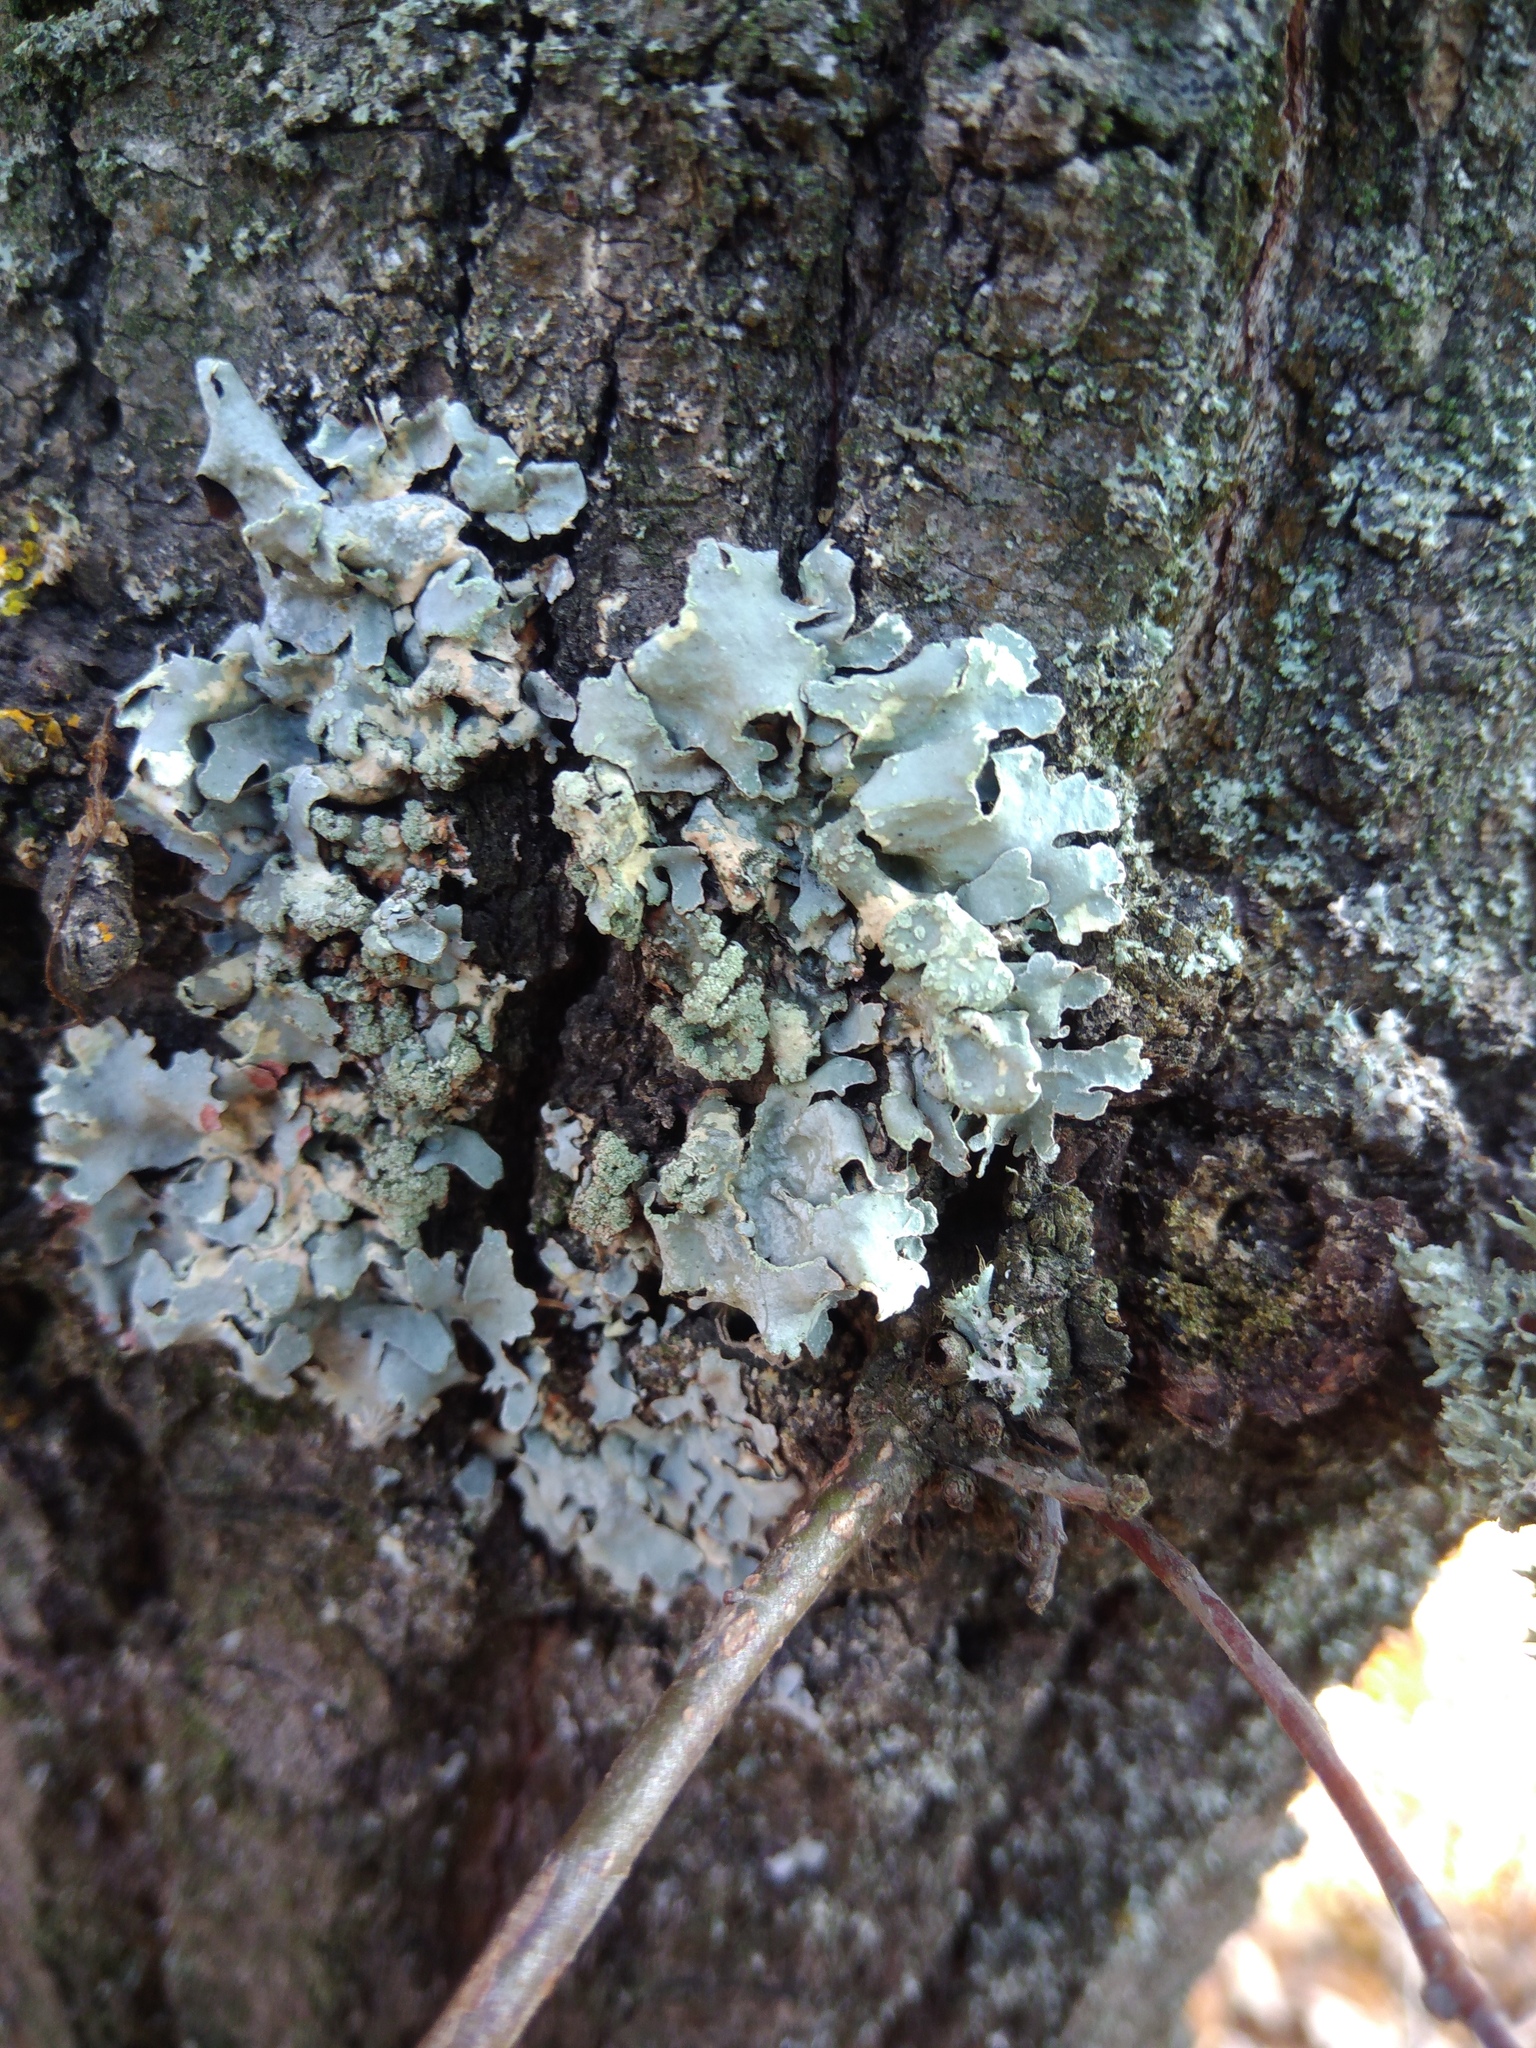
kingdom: Fungi
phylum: Ascomycota
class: Lecanoromycetes
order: Lecanorales
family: Parmeliaceae
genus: Parmelia
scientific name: Parmelia sulcata
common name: Netted shield lichen
